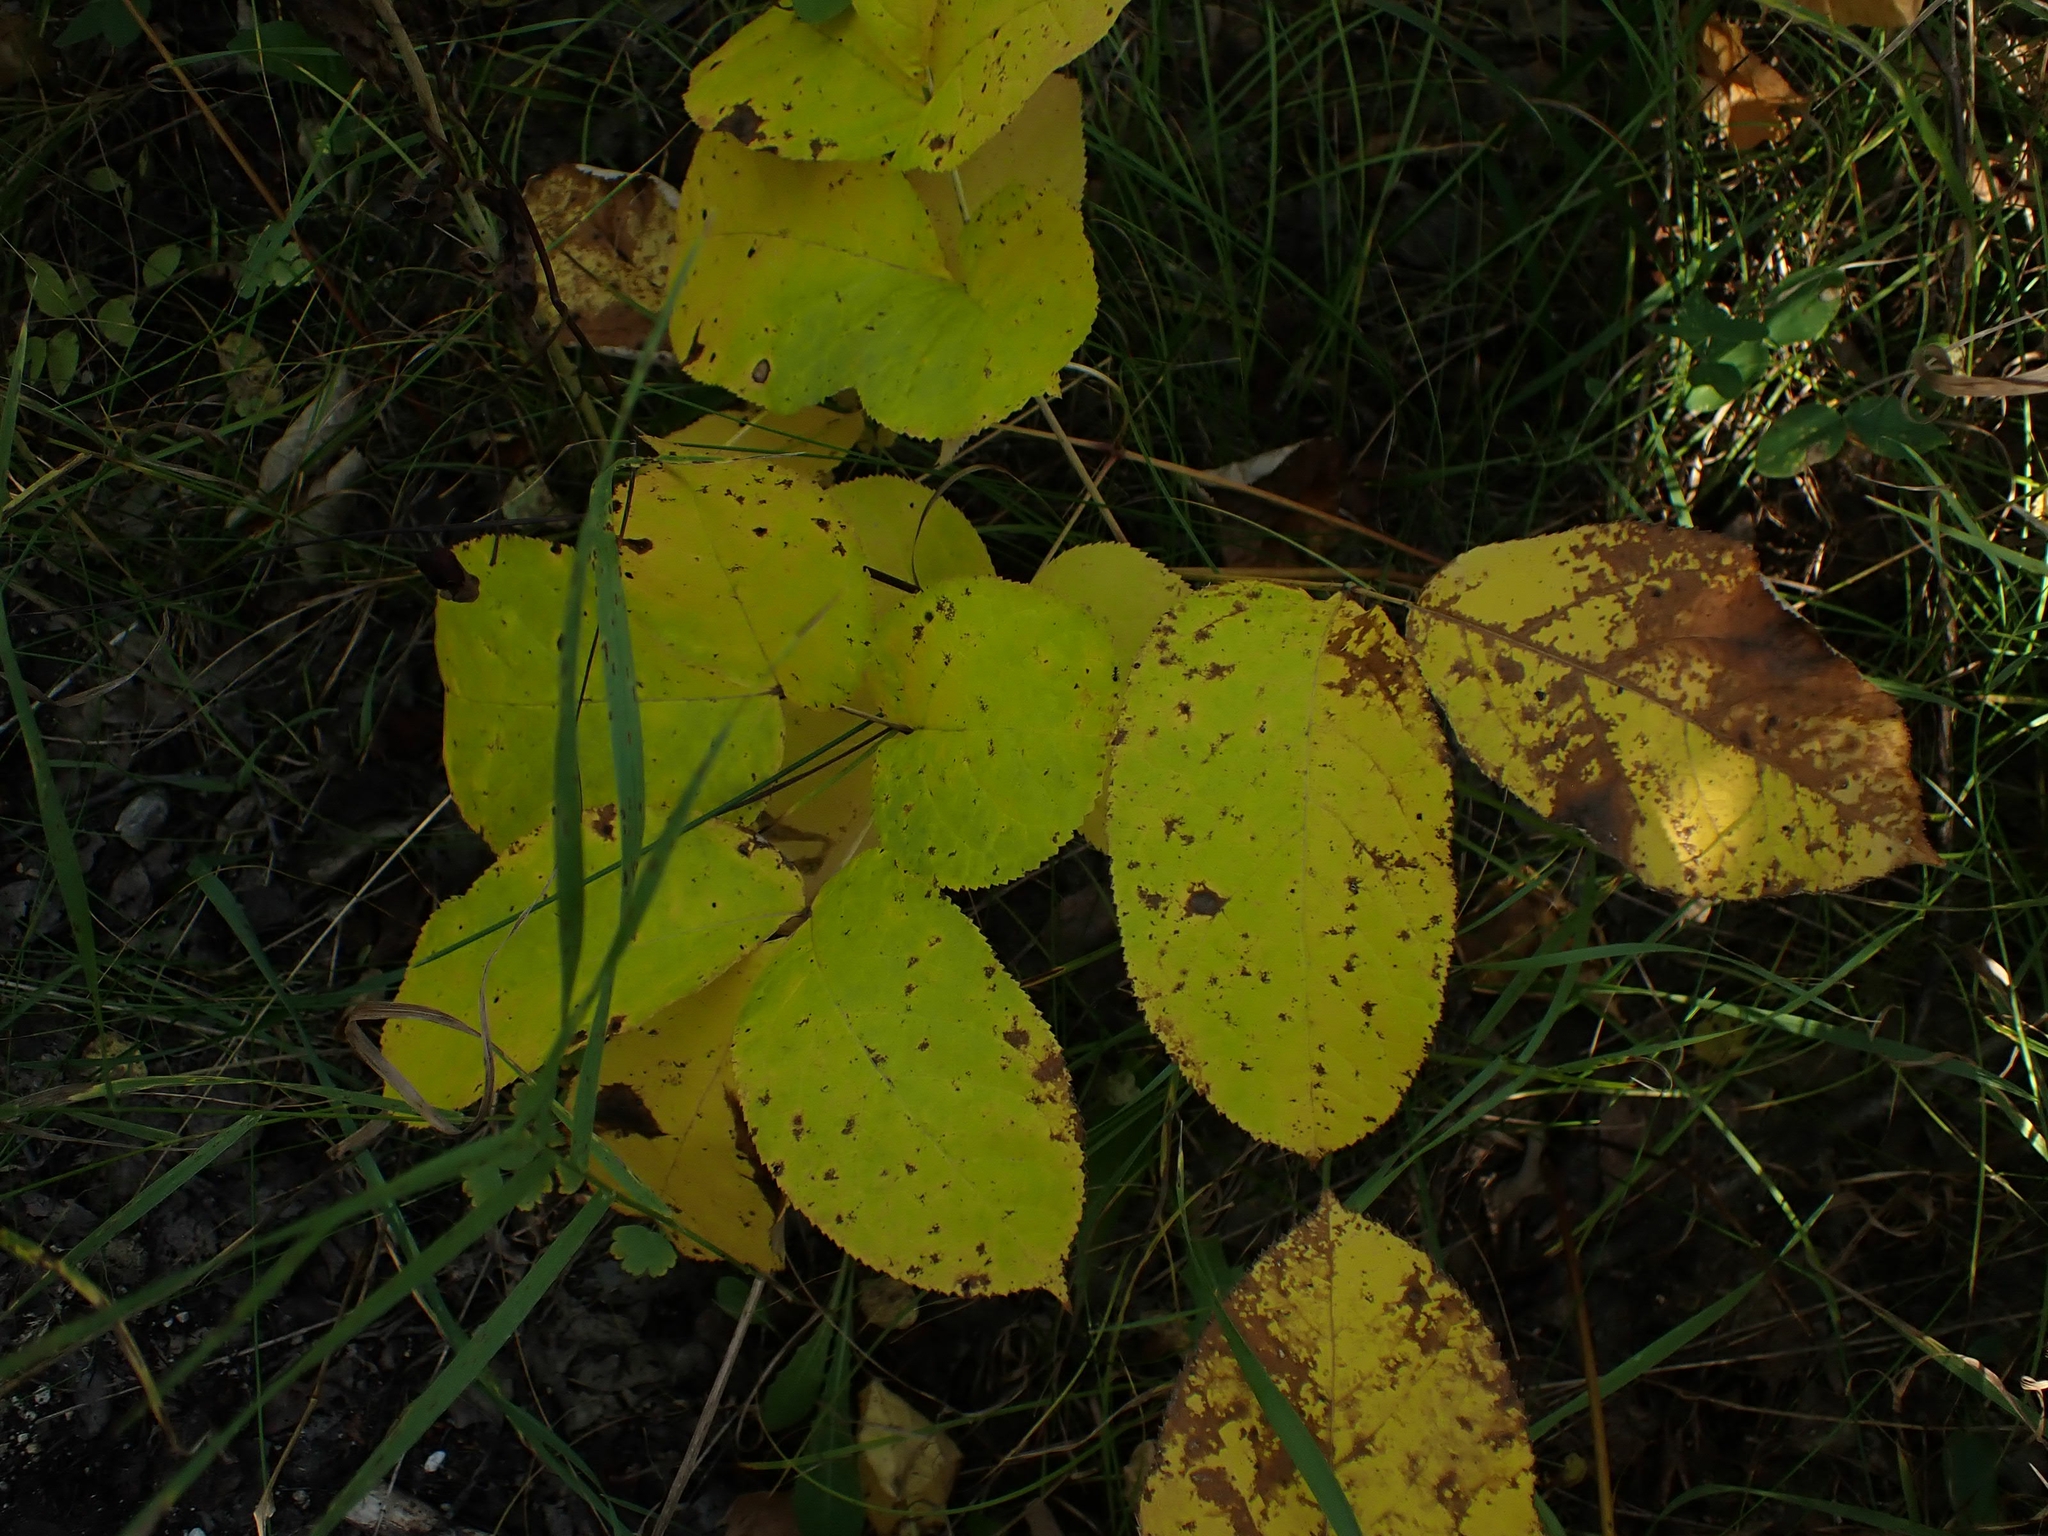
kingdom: Plantae
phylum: Tracheophyta
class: Magnoliopsida
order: Apiales
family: Araliaceae
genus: Aralia
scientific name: Aralia nudicaulis
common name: Wild sarsaparilla
